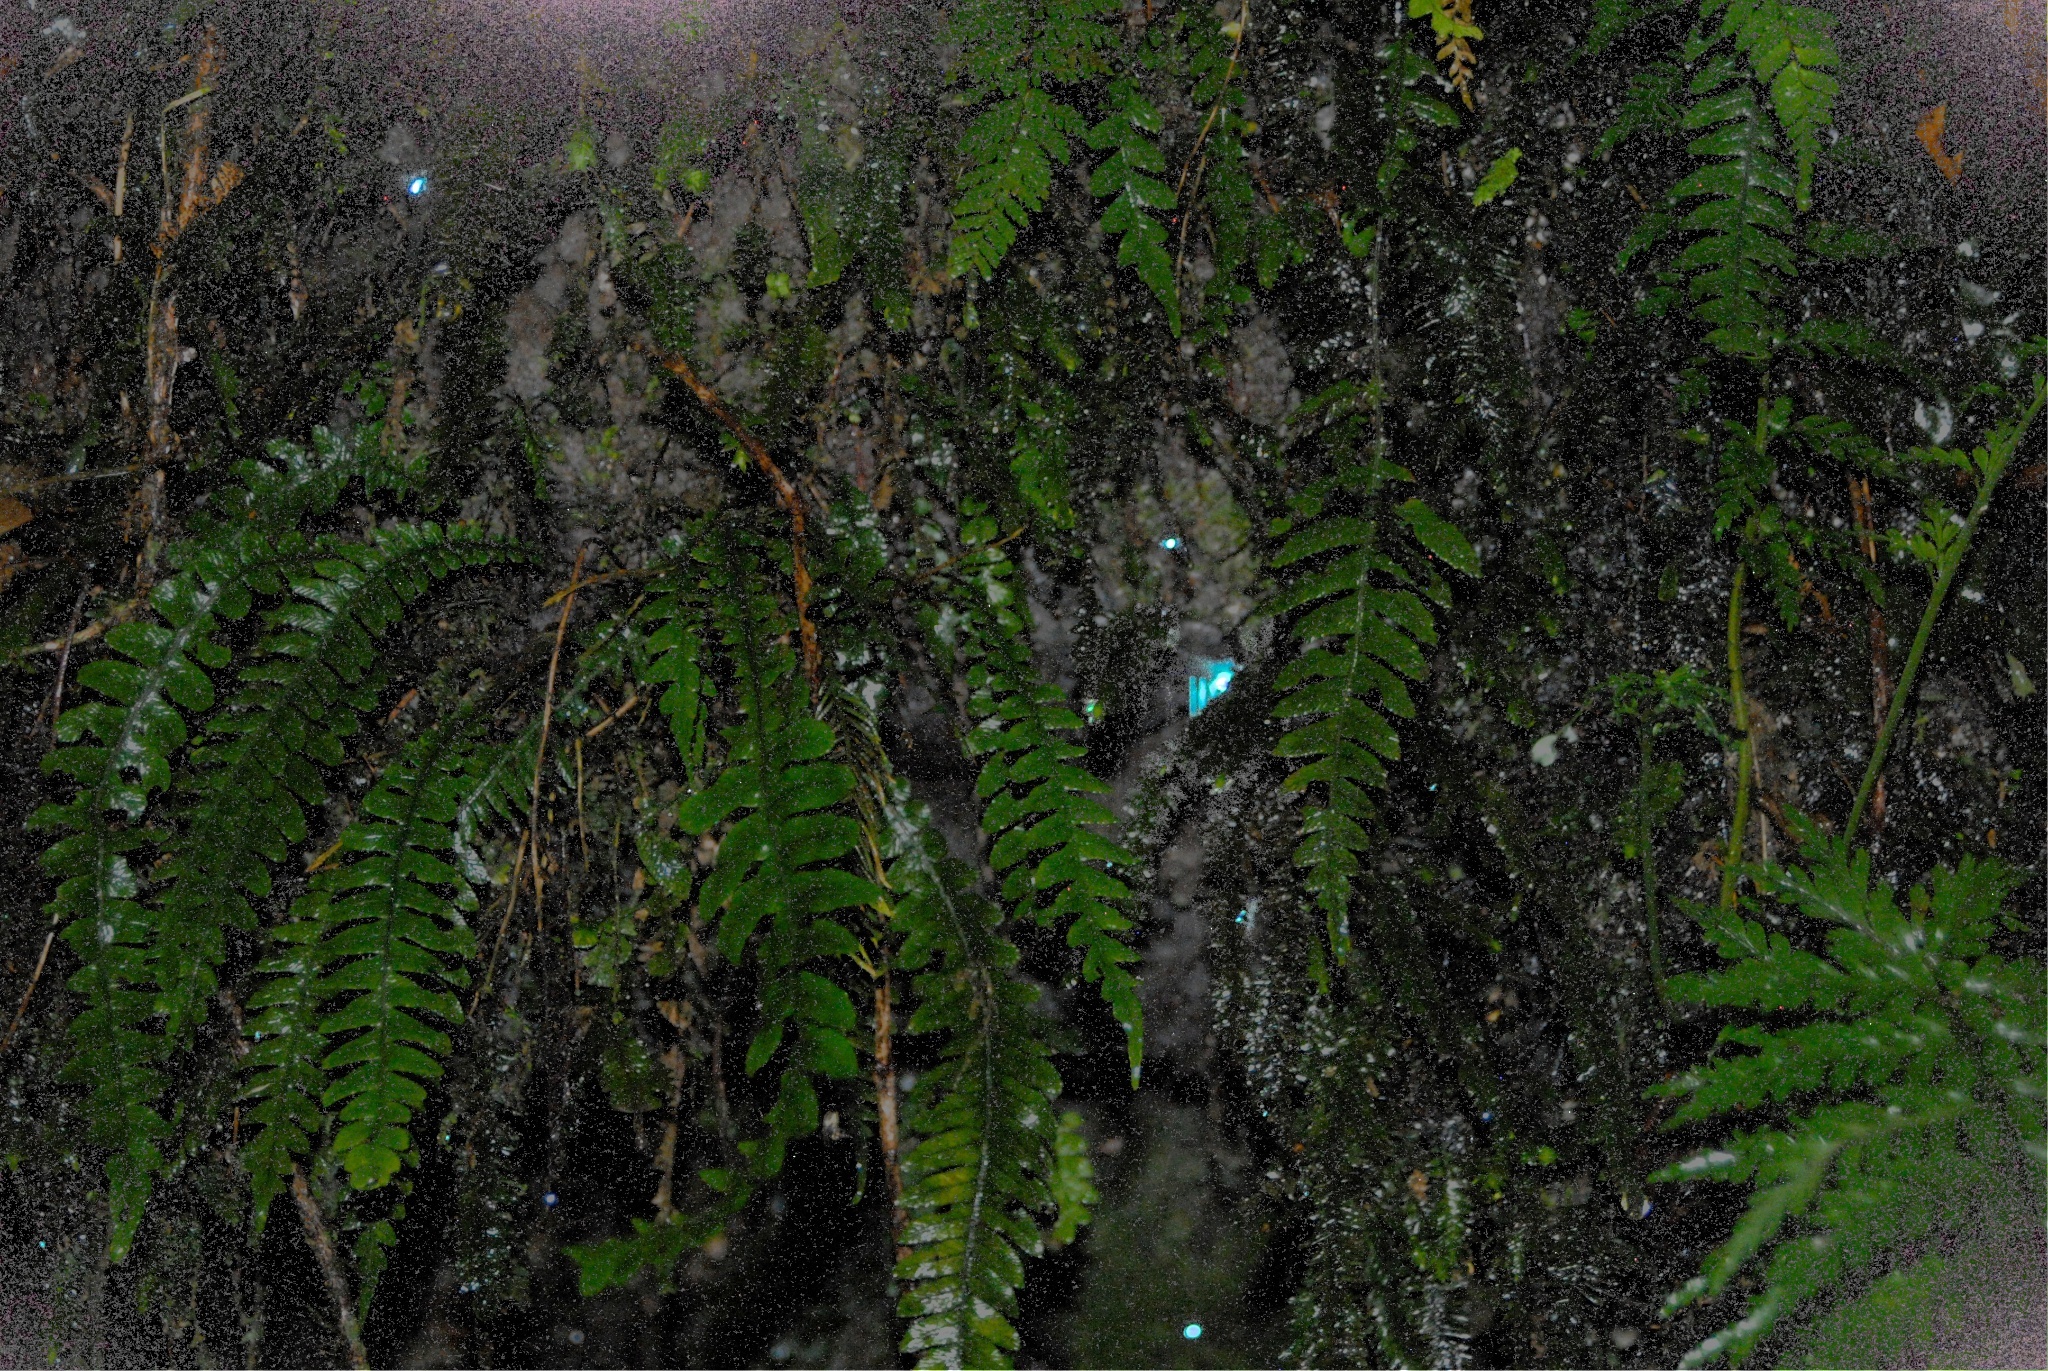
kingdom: Animalia
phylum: Arthropoda
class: Insecta
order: Diptera
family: Keroplatidae
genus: Arachnocampa
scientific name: Arachnocampa luminosa
